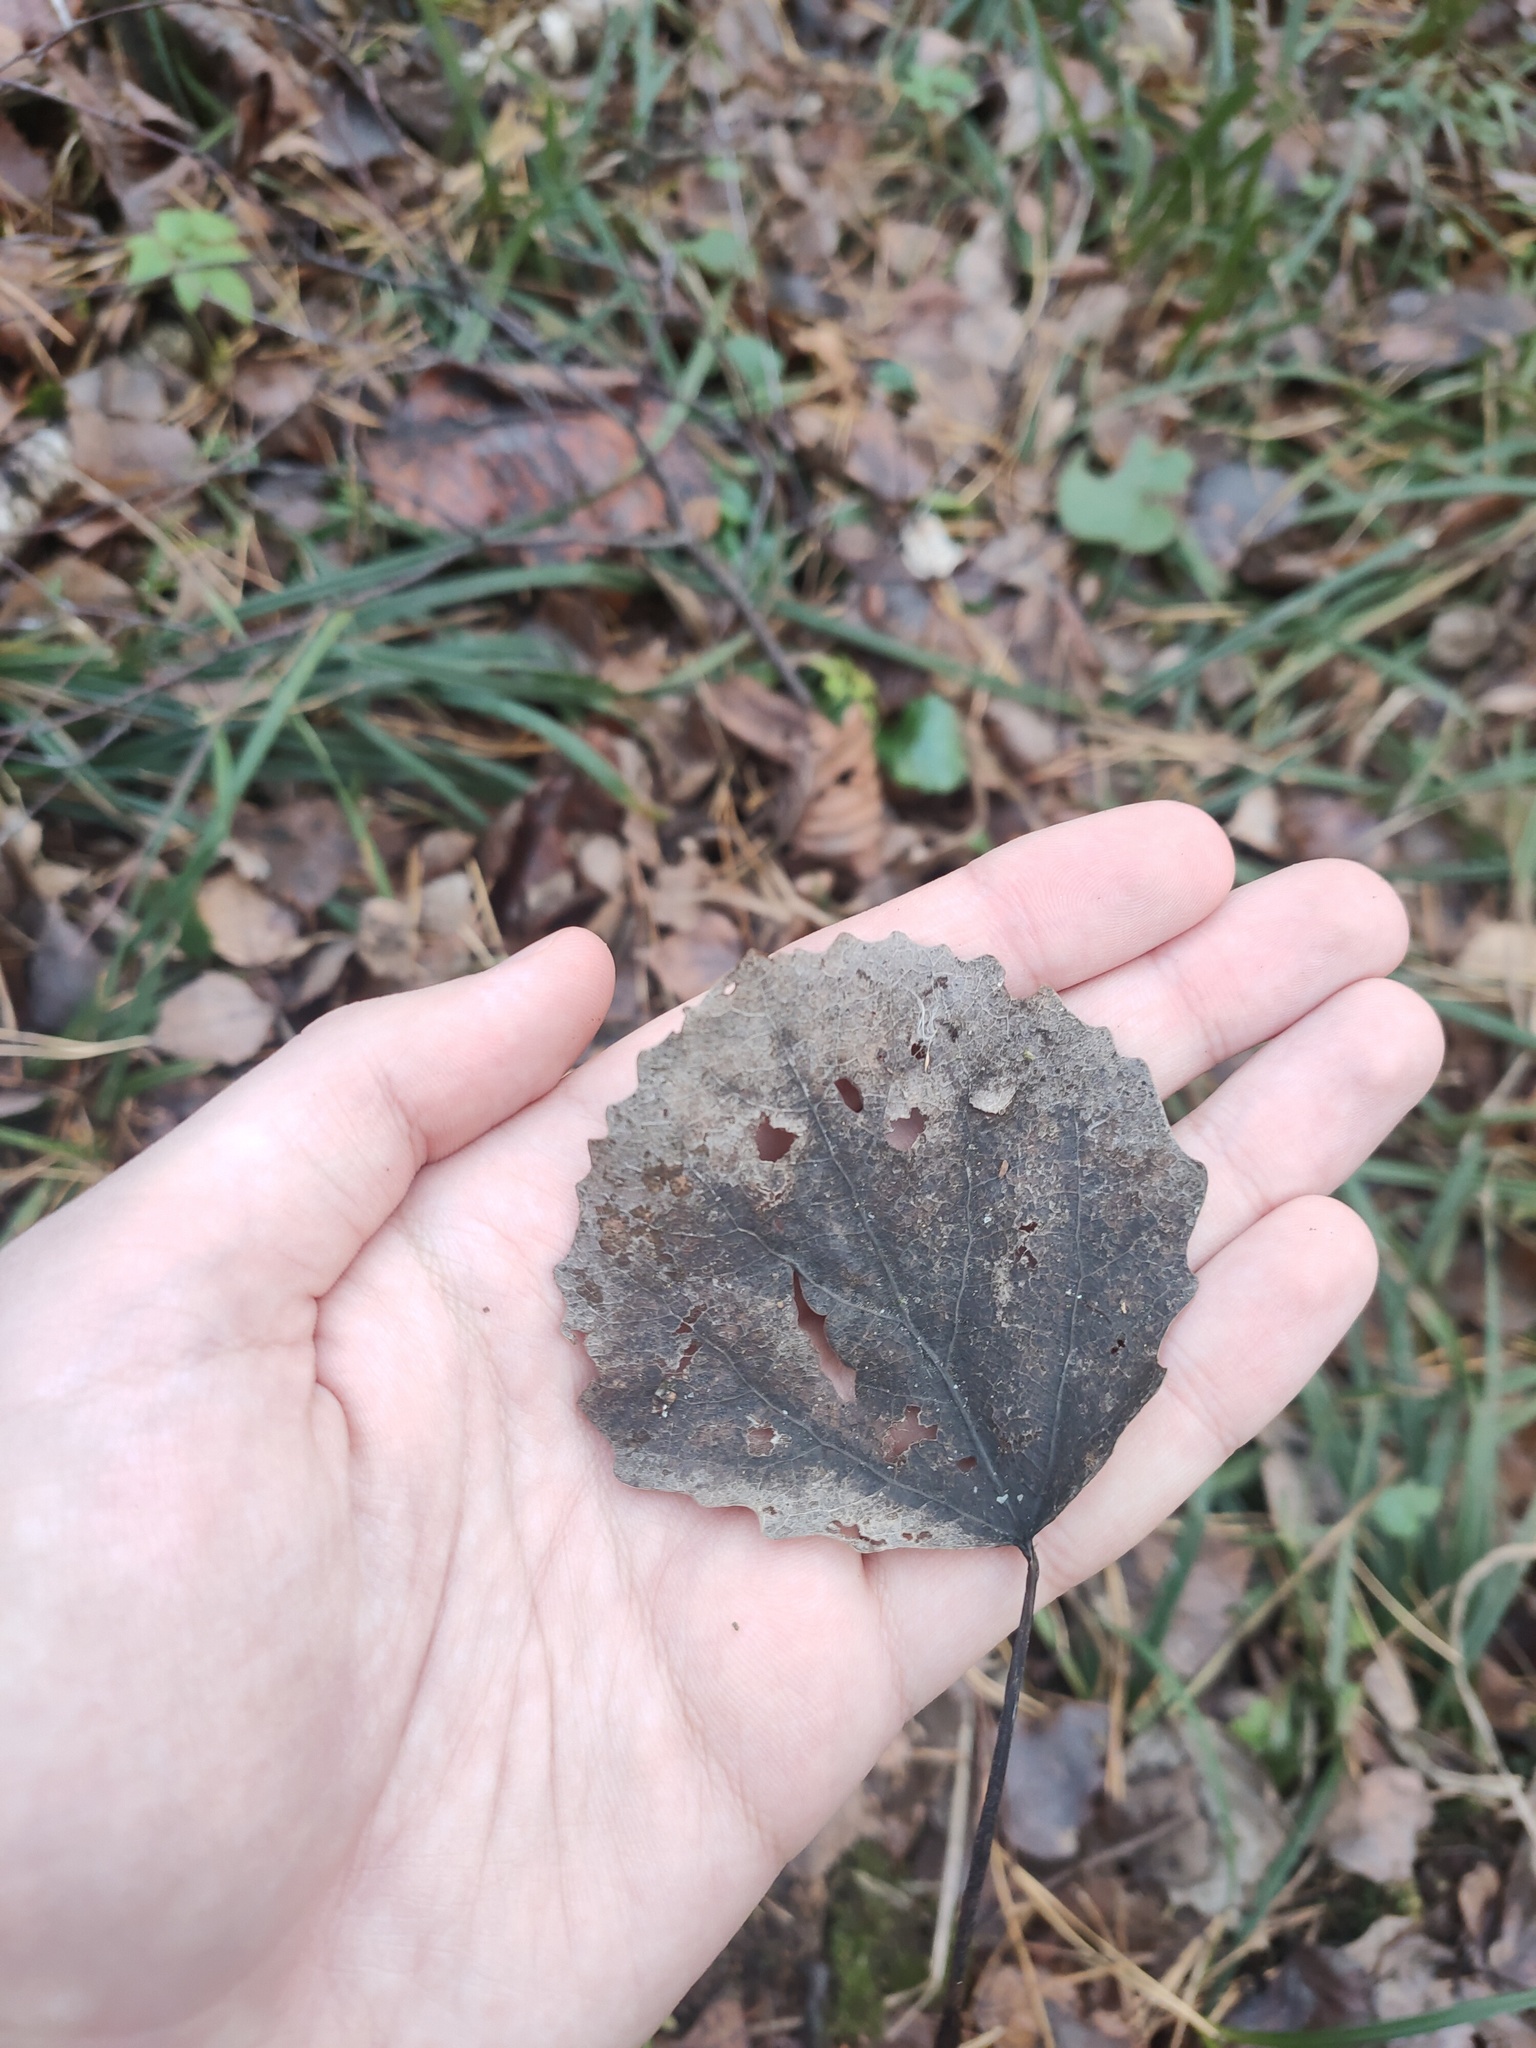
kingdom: Plantae
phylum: Tracheophyta
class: Magnoliopsida
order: Malpighiales
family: Salicaceae
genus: Populus
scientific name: Populus tremula
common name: European aspen
